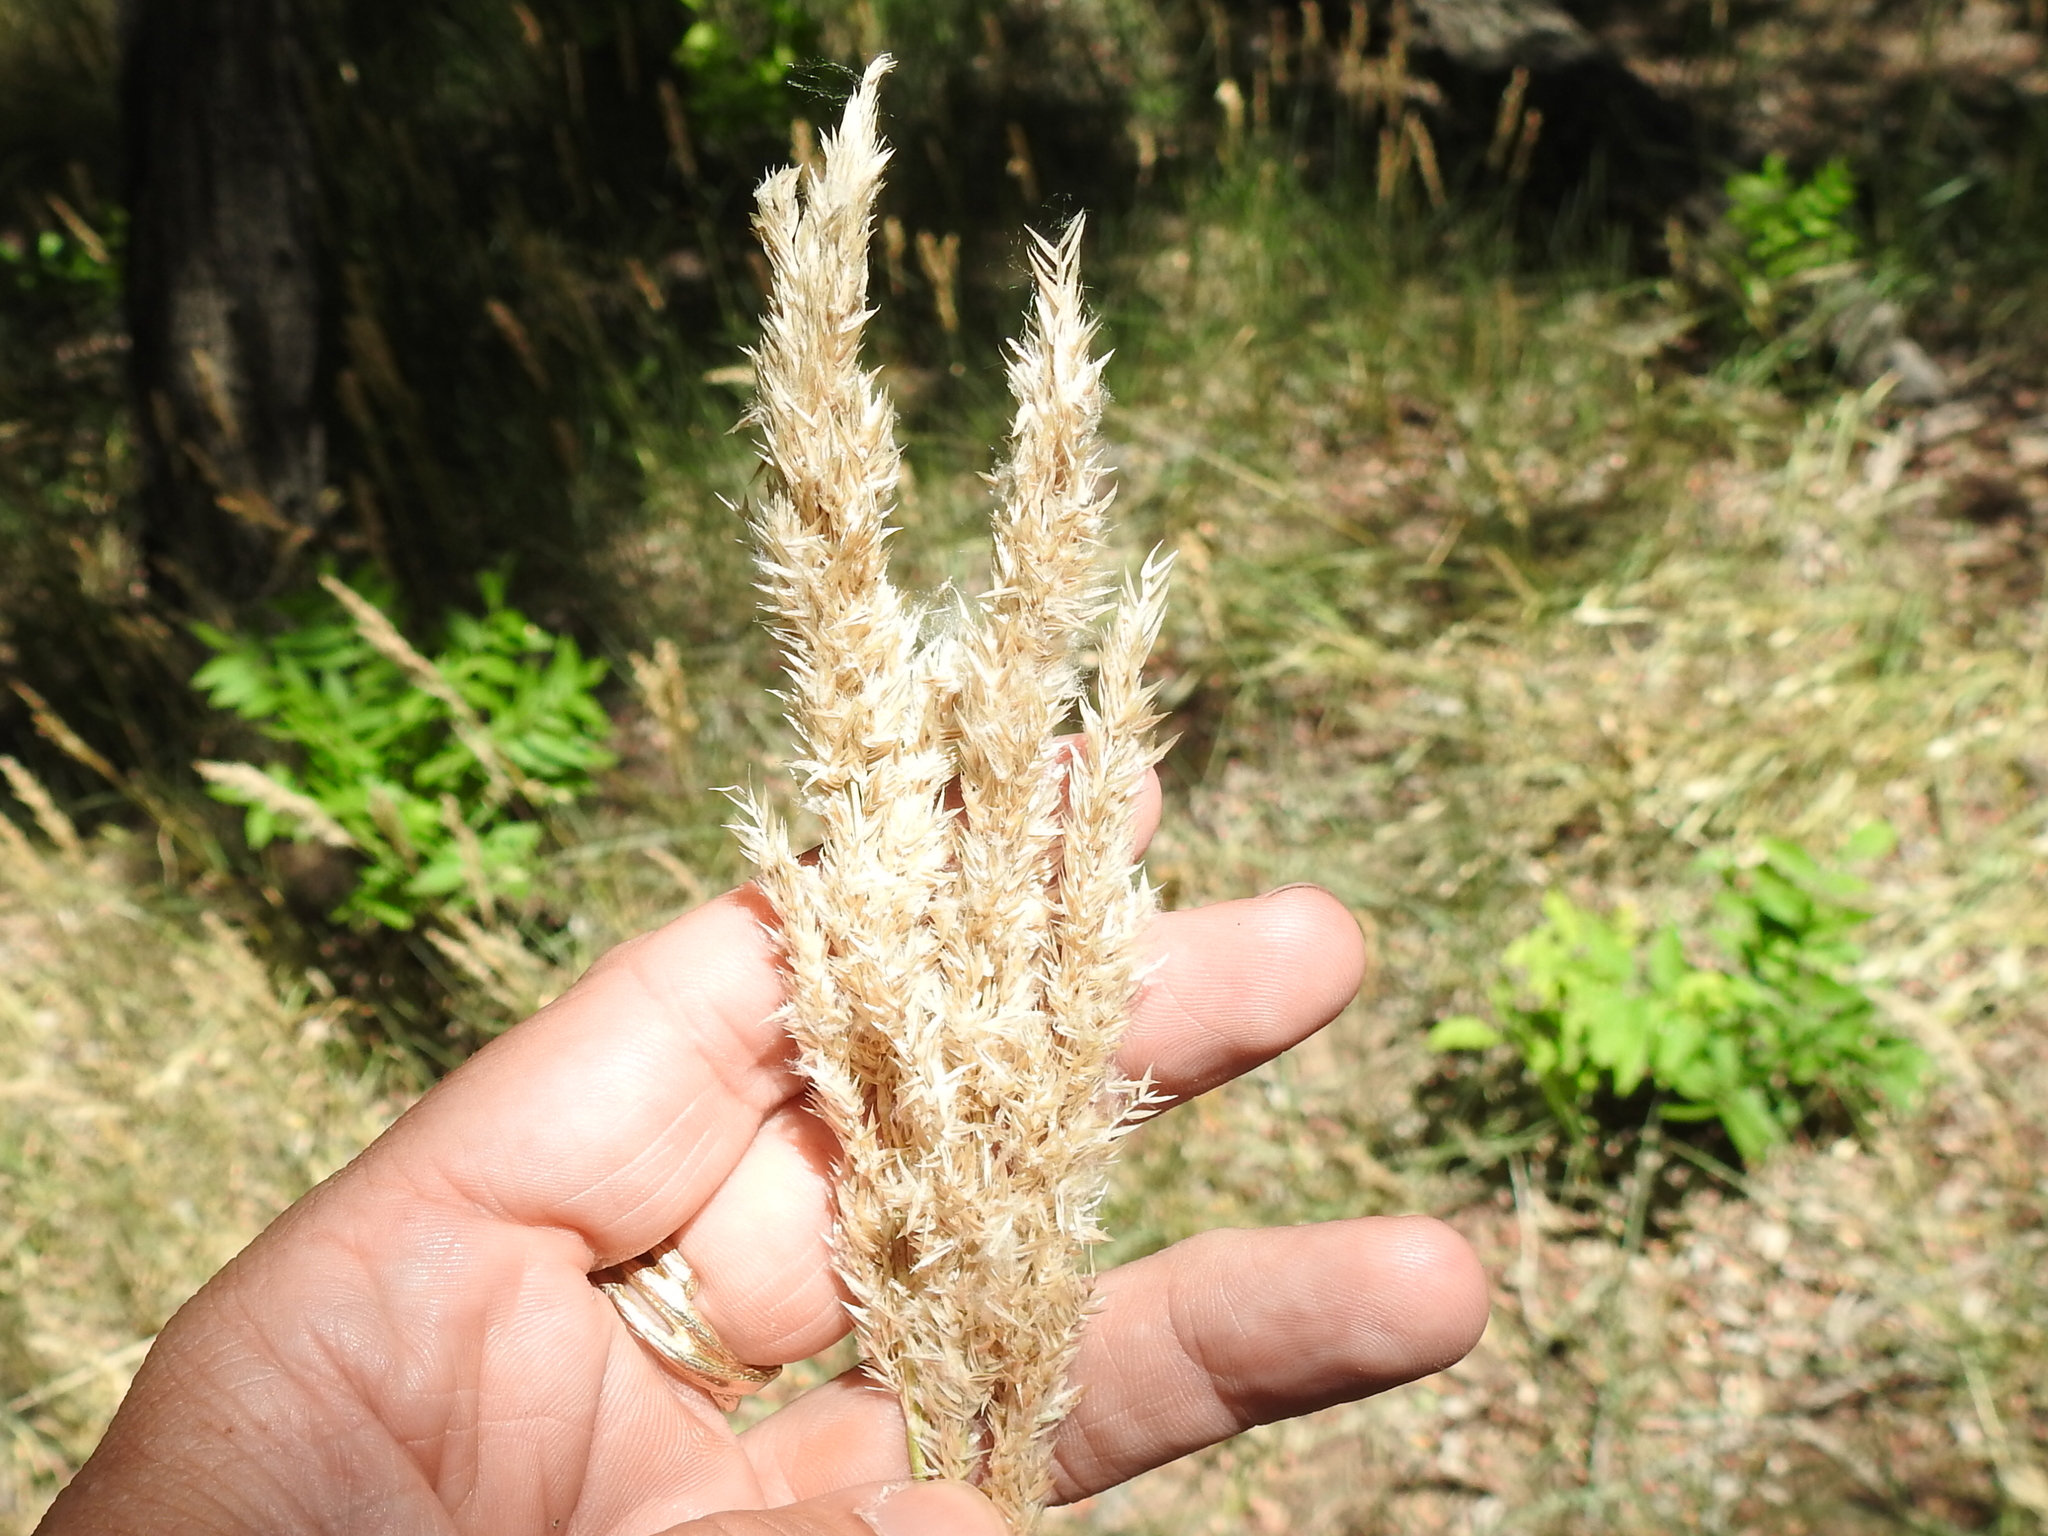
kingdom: Plantae
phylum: Tracheophyta
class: Liliopsida
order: Poales
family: Poaceae
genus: Poa
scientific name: Poa arachnifera
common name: Texas bluegrass
